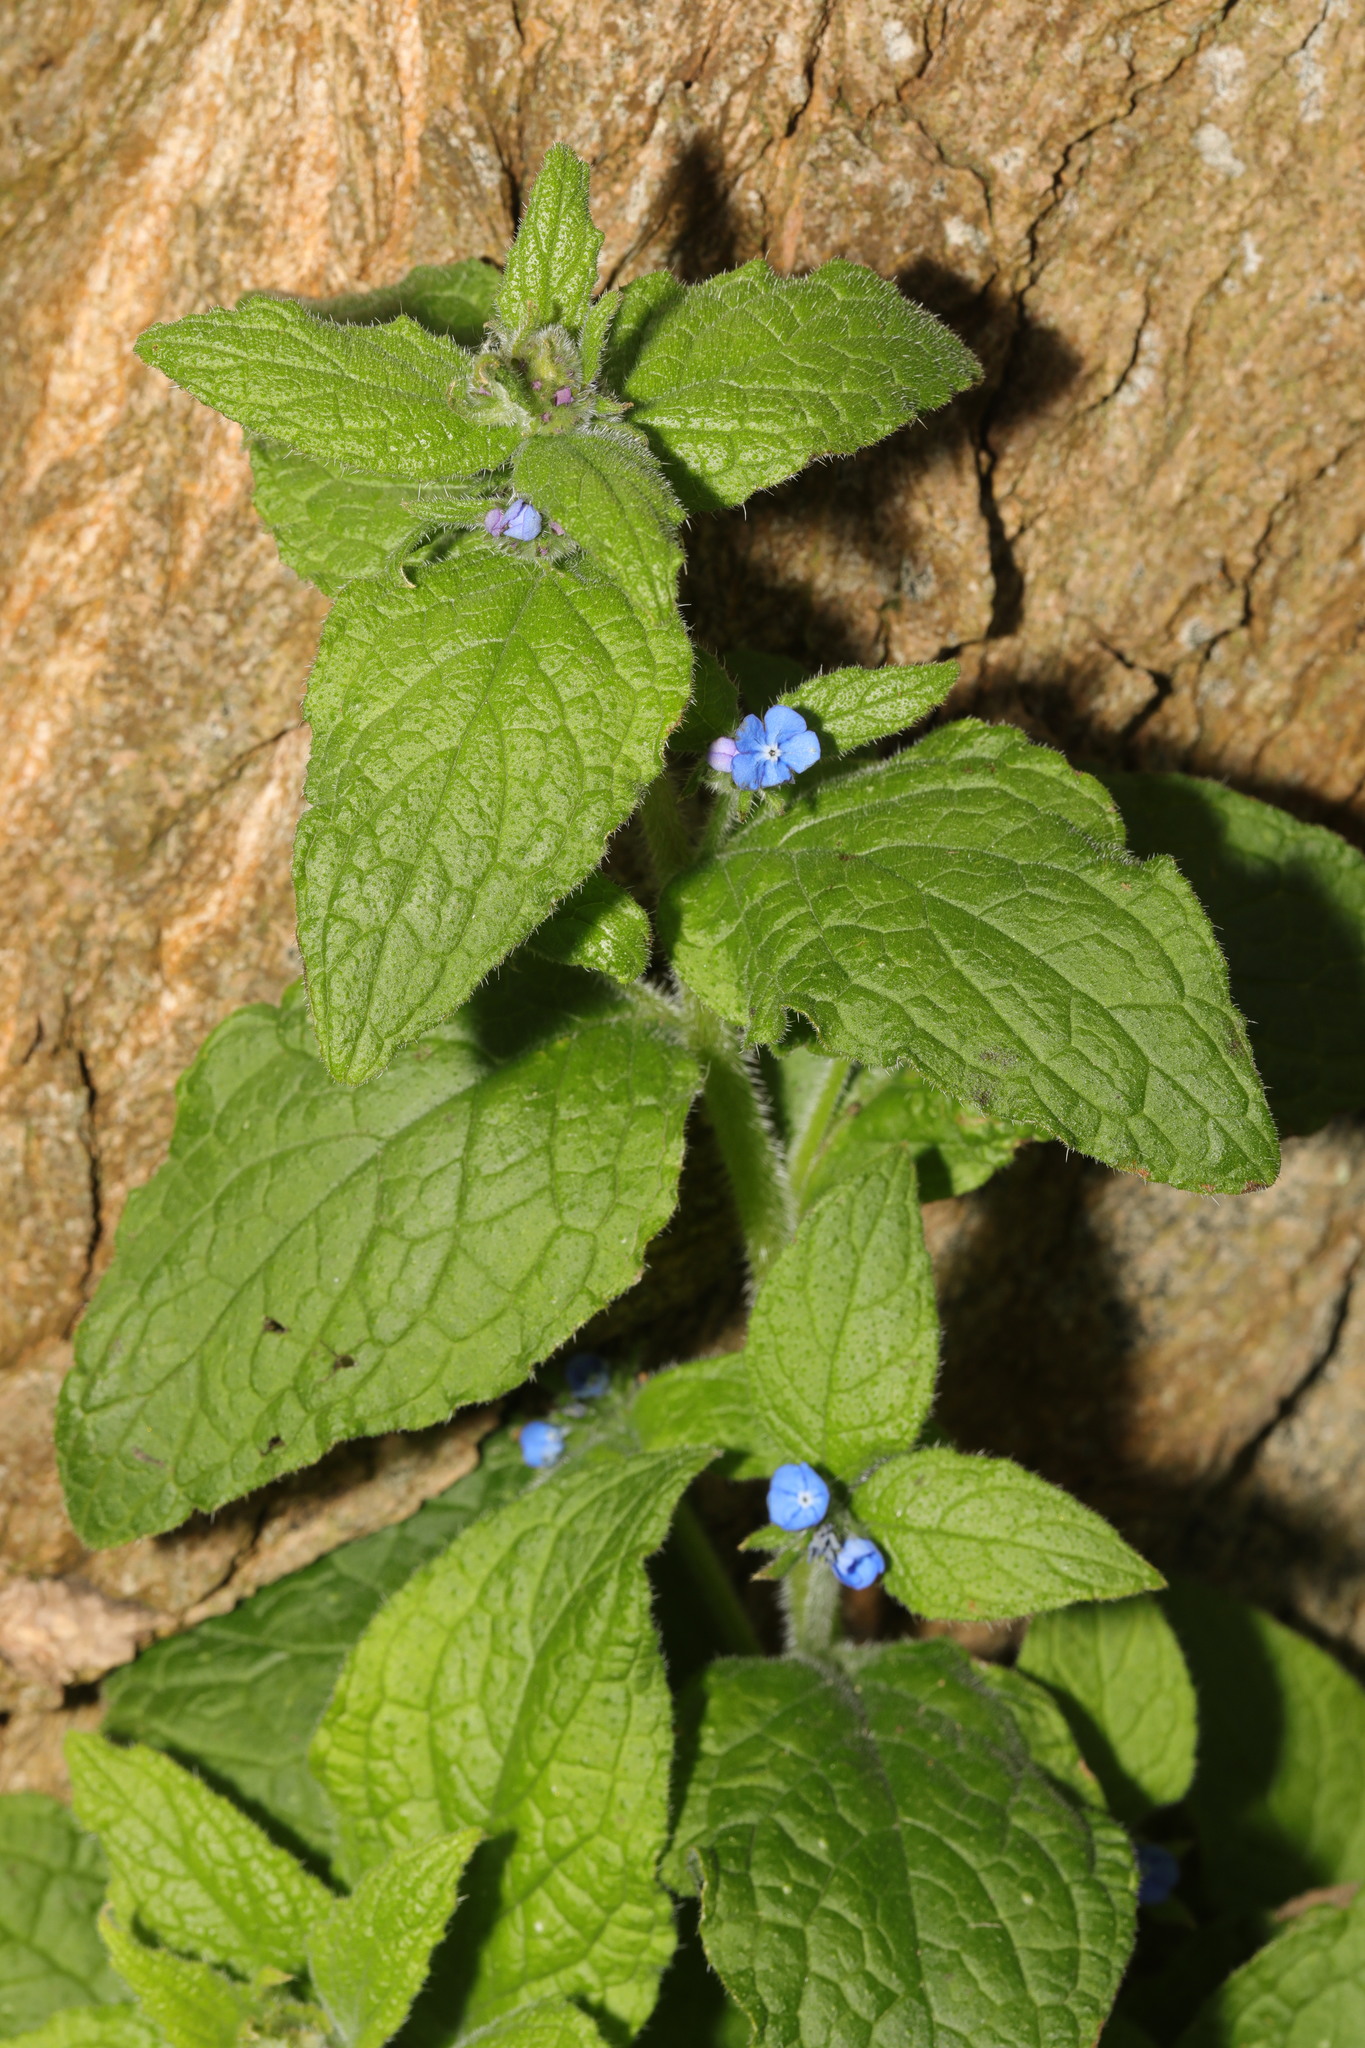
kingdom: Plantae
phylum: Tracheophyta
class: Magnoliopsida
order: Boraginales
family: Boraginaceae
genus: Pentaglottis
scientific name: Pentaglottis sempervirens
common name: Green alkanet
